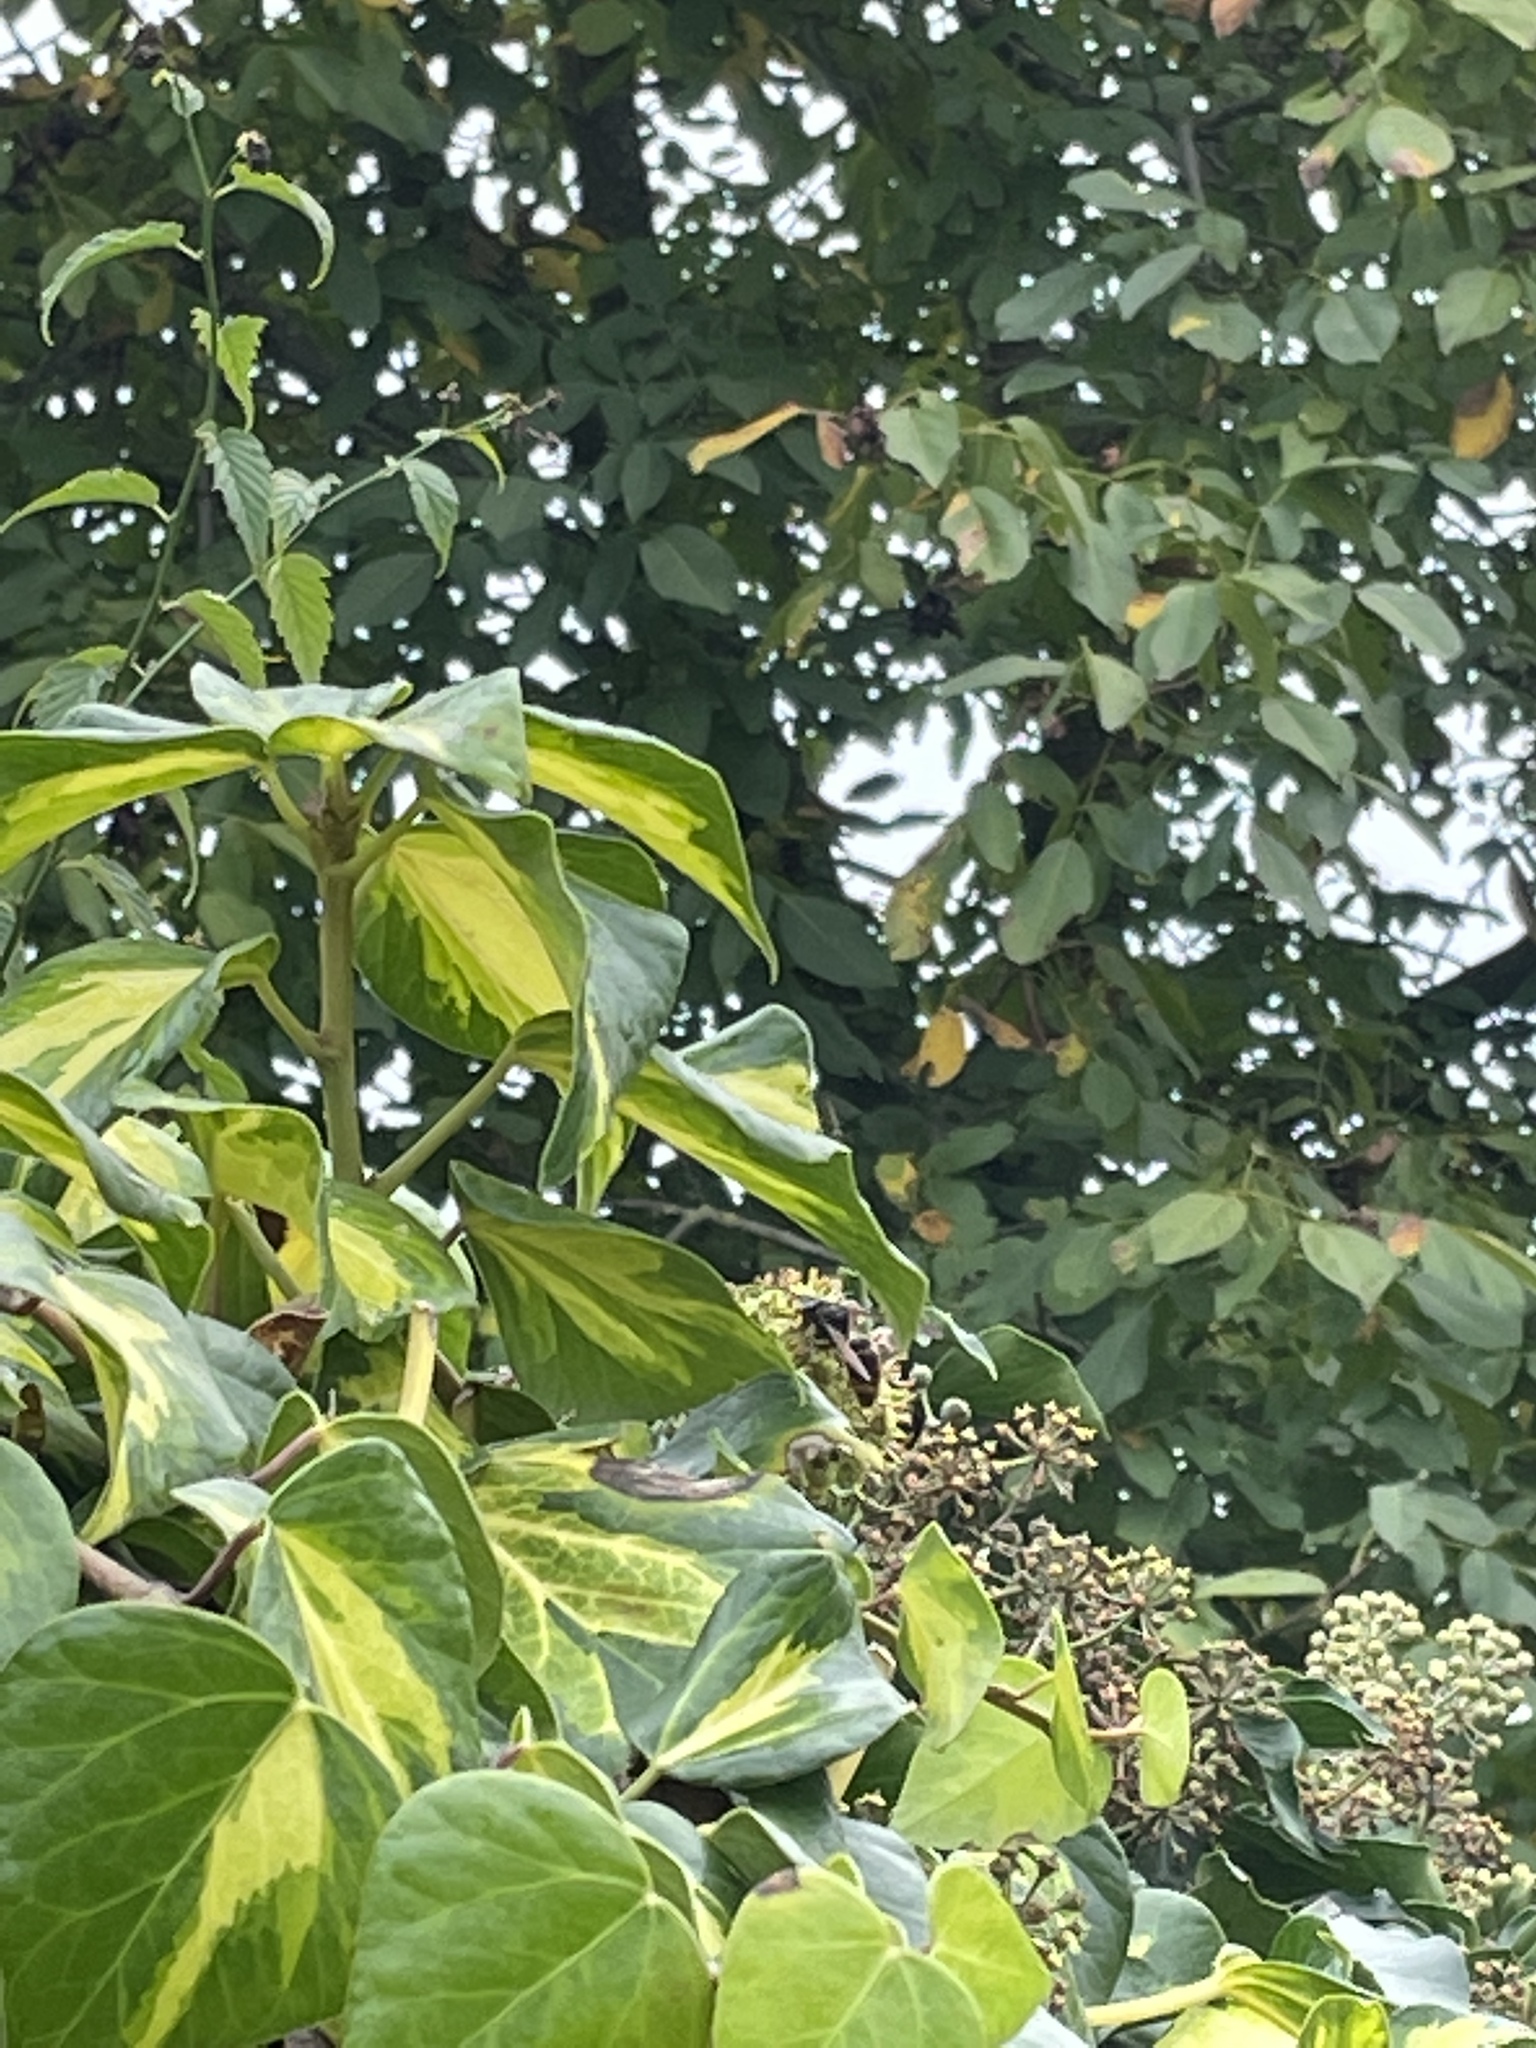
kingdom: Animalia
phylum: Arthropoda
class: Insecta
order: Hymenoptera
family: Vespidae
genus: Vespa
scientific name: Vespa velutina
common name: Asian hornet
